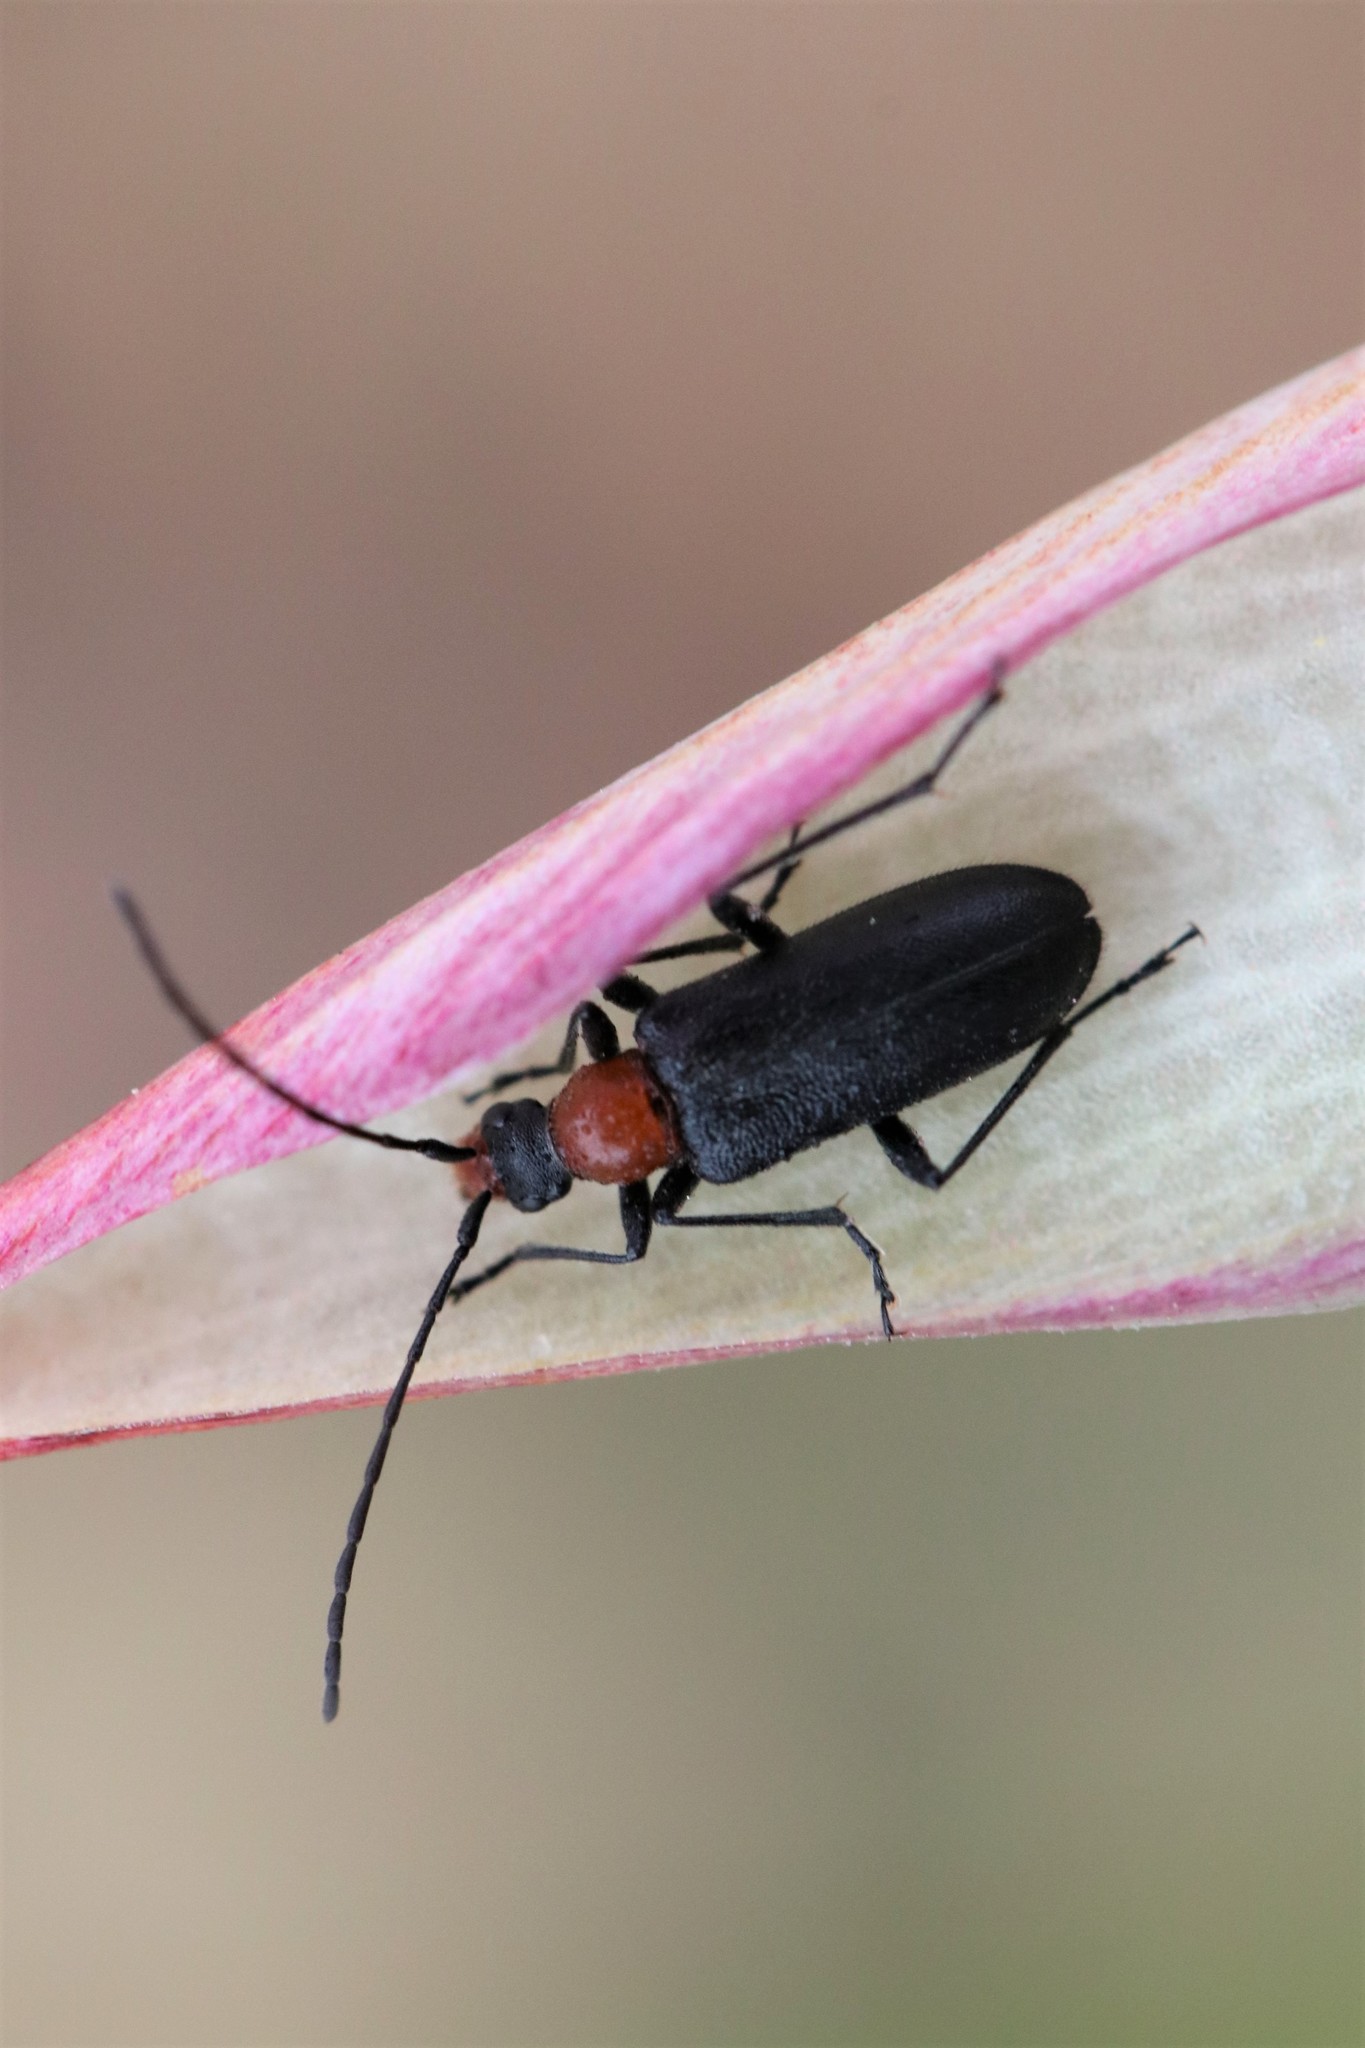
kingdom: Animalia
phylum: Arthropoda
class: Insecta
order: Coleoptera
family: Cerambycidae
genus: Cortodera
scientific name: Cortodera falsa
